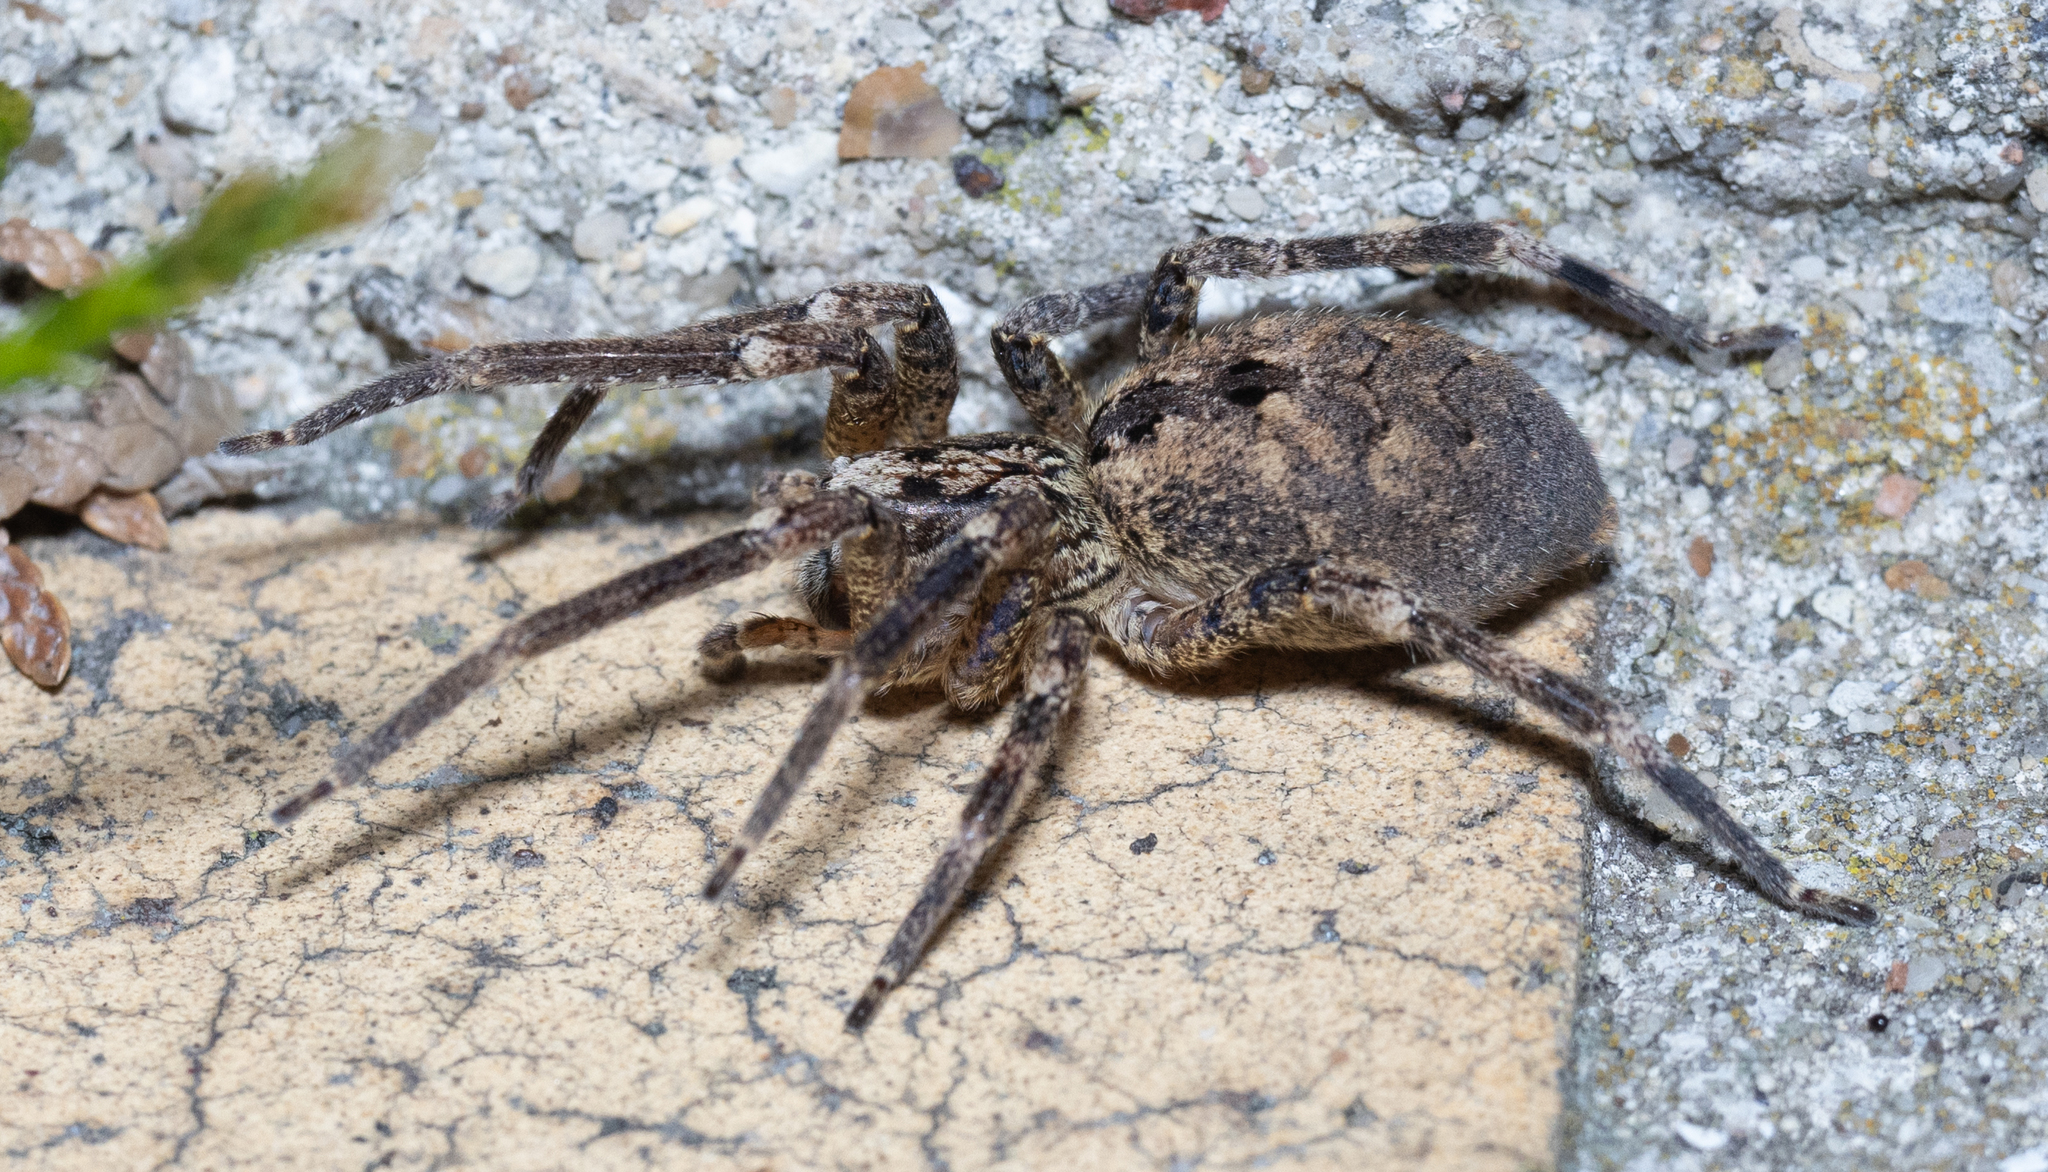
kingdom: Animalia
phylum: Arthropoda
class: Arachnida
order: Araneae
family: Zoropsidae
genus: Zoropsis
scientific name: Zoropsis spinimana
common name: Zoropsid spider
